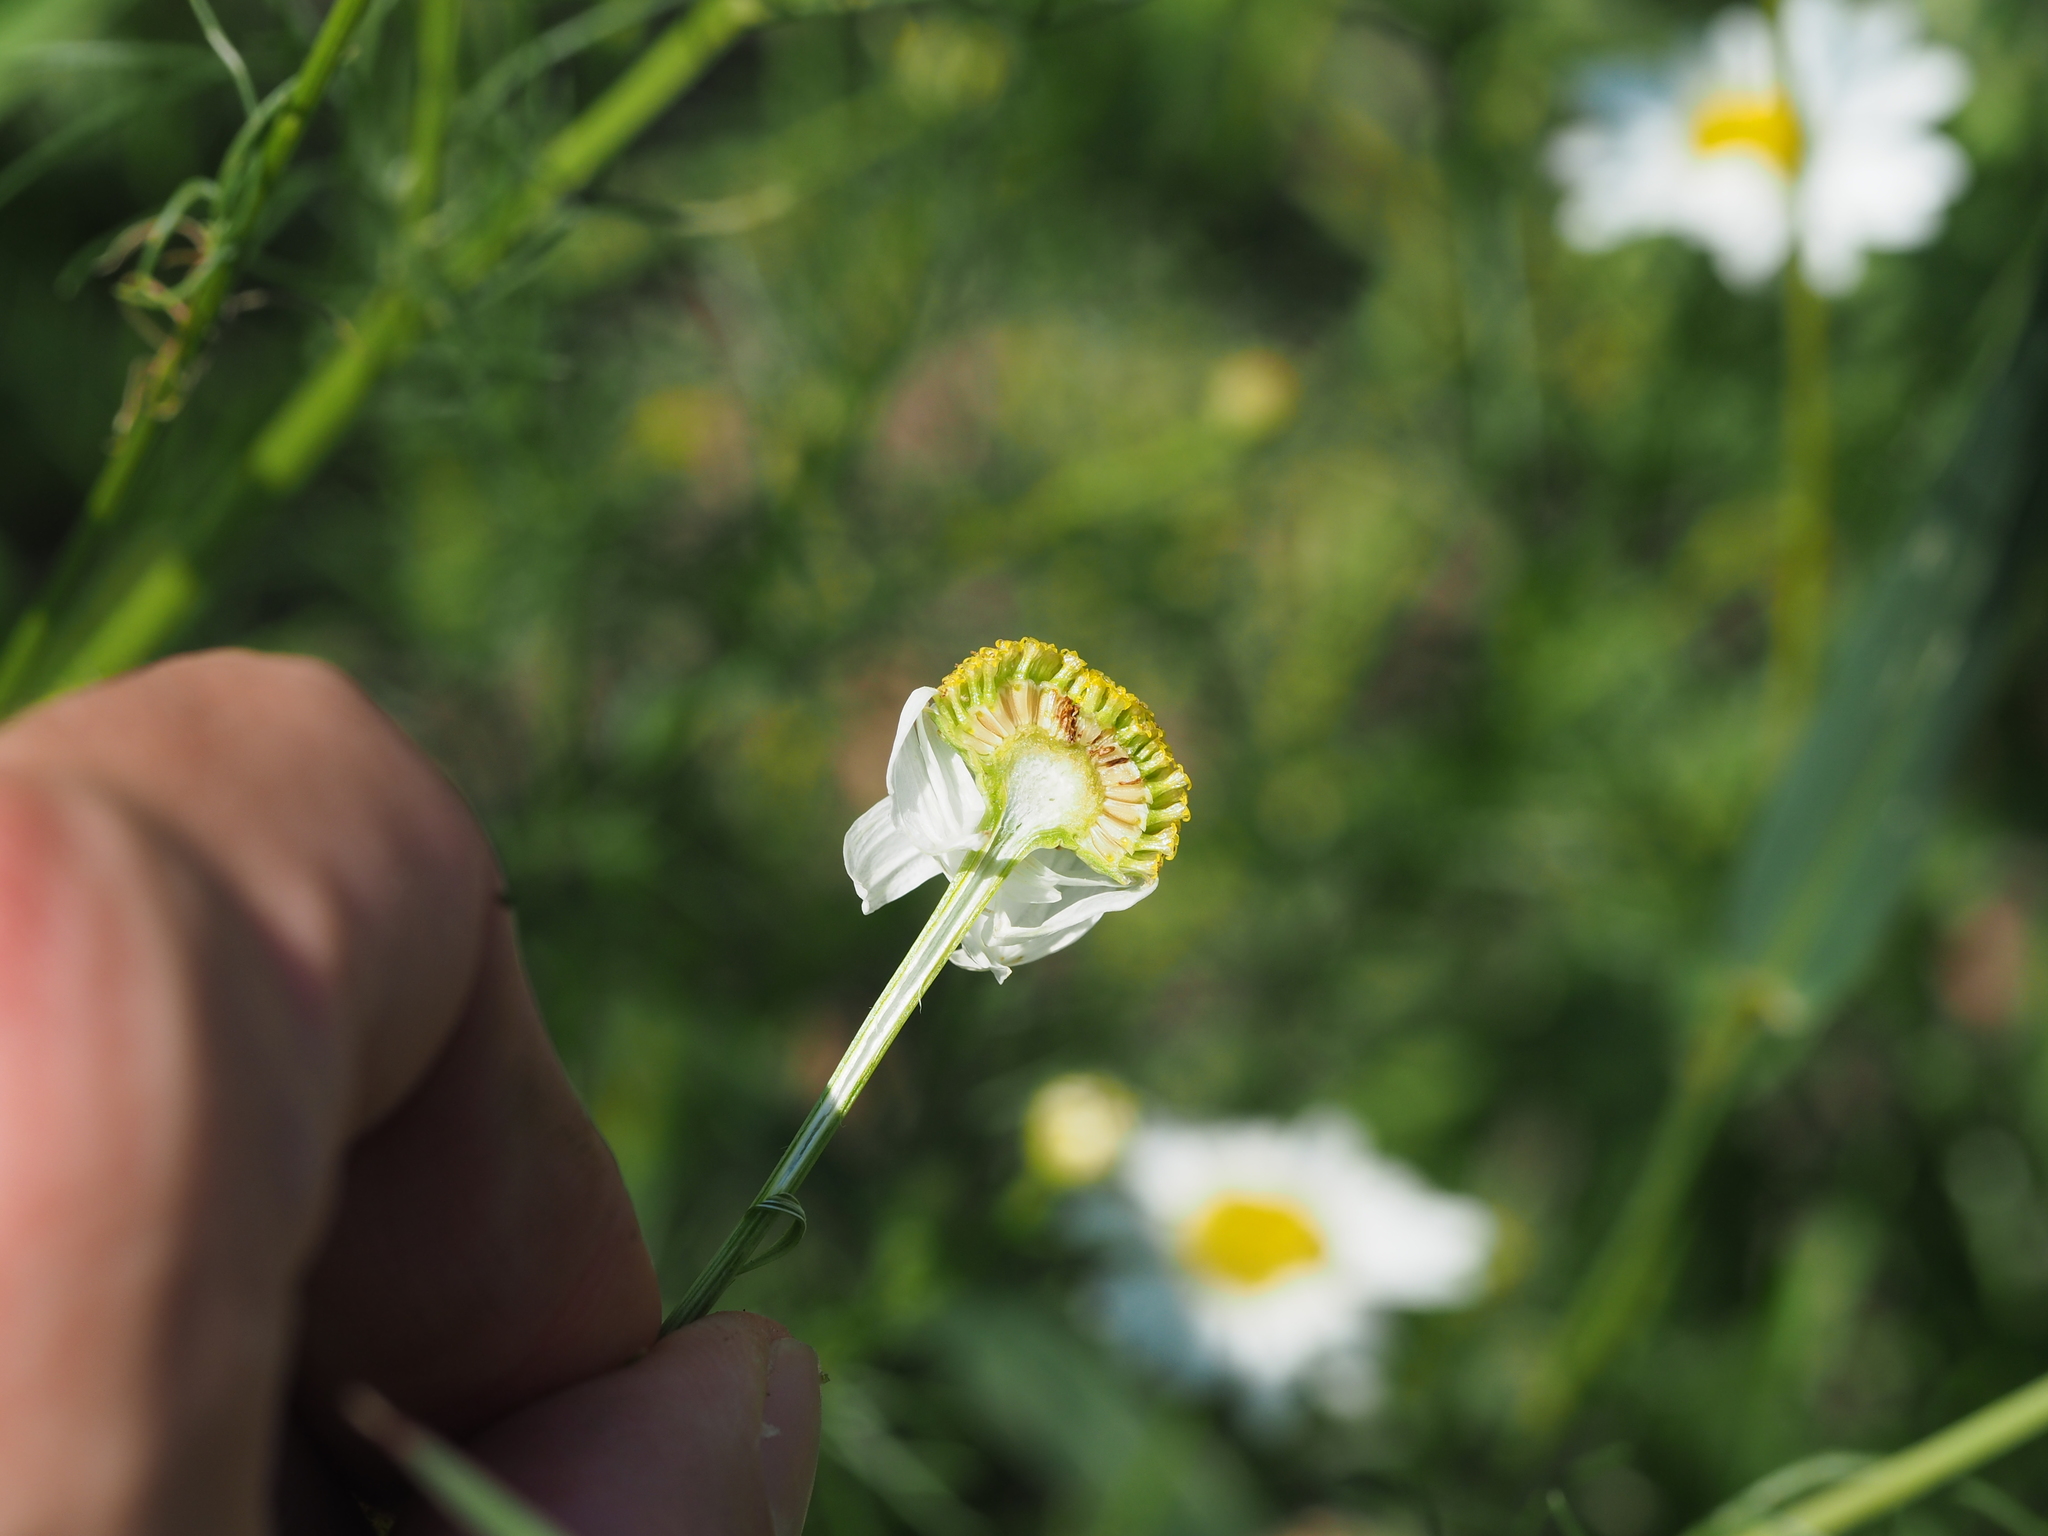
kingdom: Plantae
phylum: Tracheophyta
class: Magnoliopsida
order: Asterales
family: Asteraceae
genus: Tripleurospermum
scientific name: Tripleurospermum inodorum
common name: Scentless mayweed
